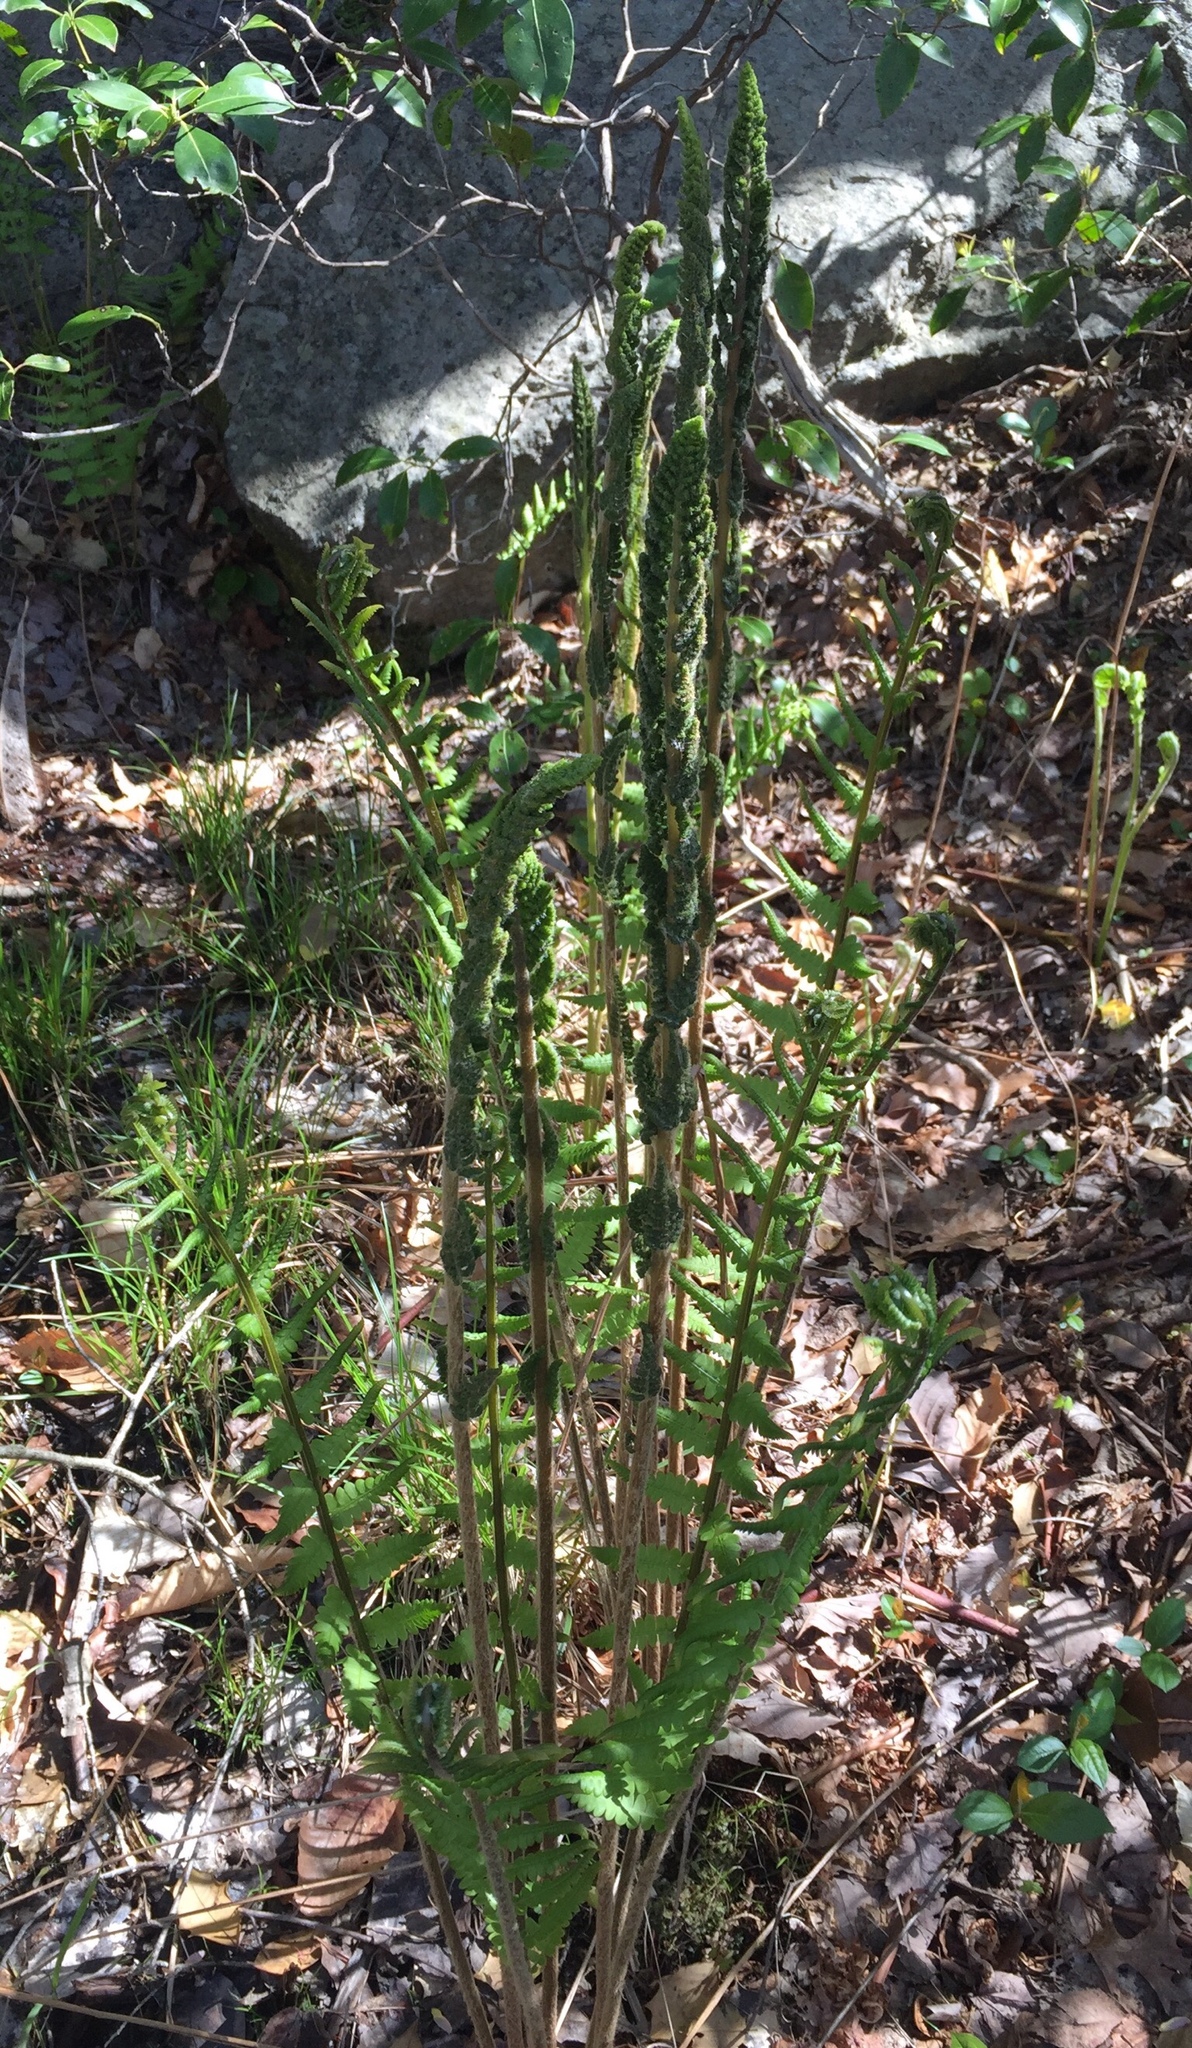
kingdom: Plantae
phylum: Tracheophyta
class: Polypodiopsida
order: Osmundales
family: Osmundaceae
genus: Osmundastrum
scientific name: Osmundastrum cinnamomeum
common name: Cinnamon fern
